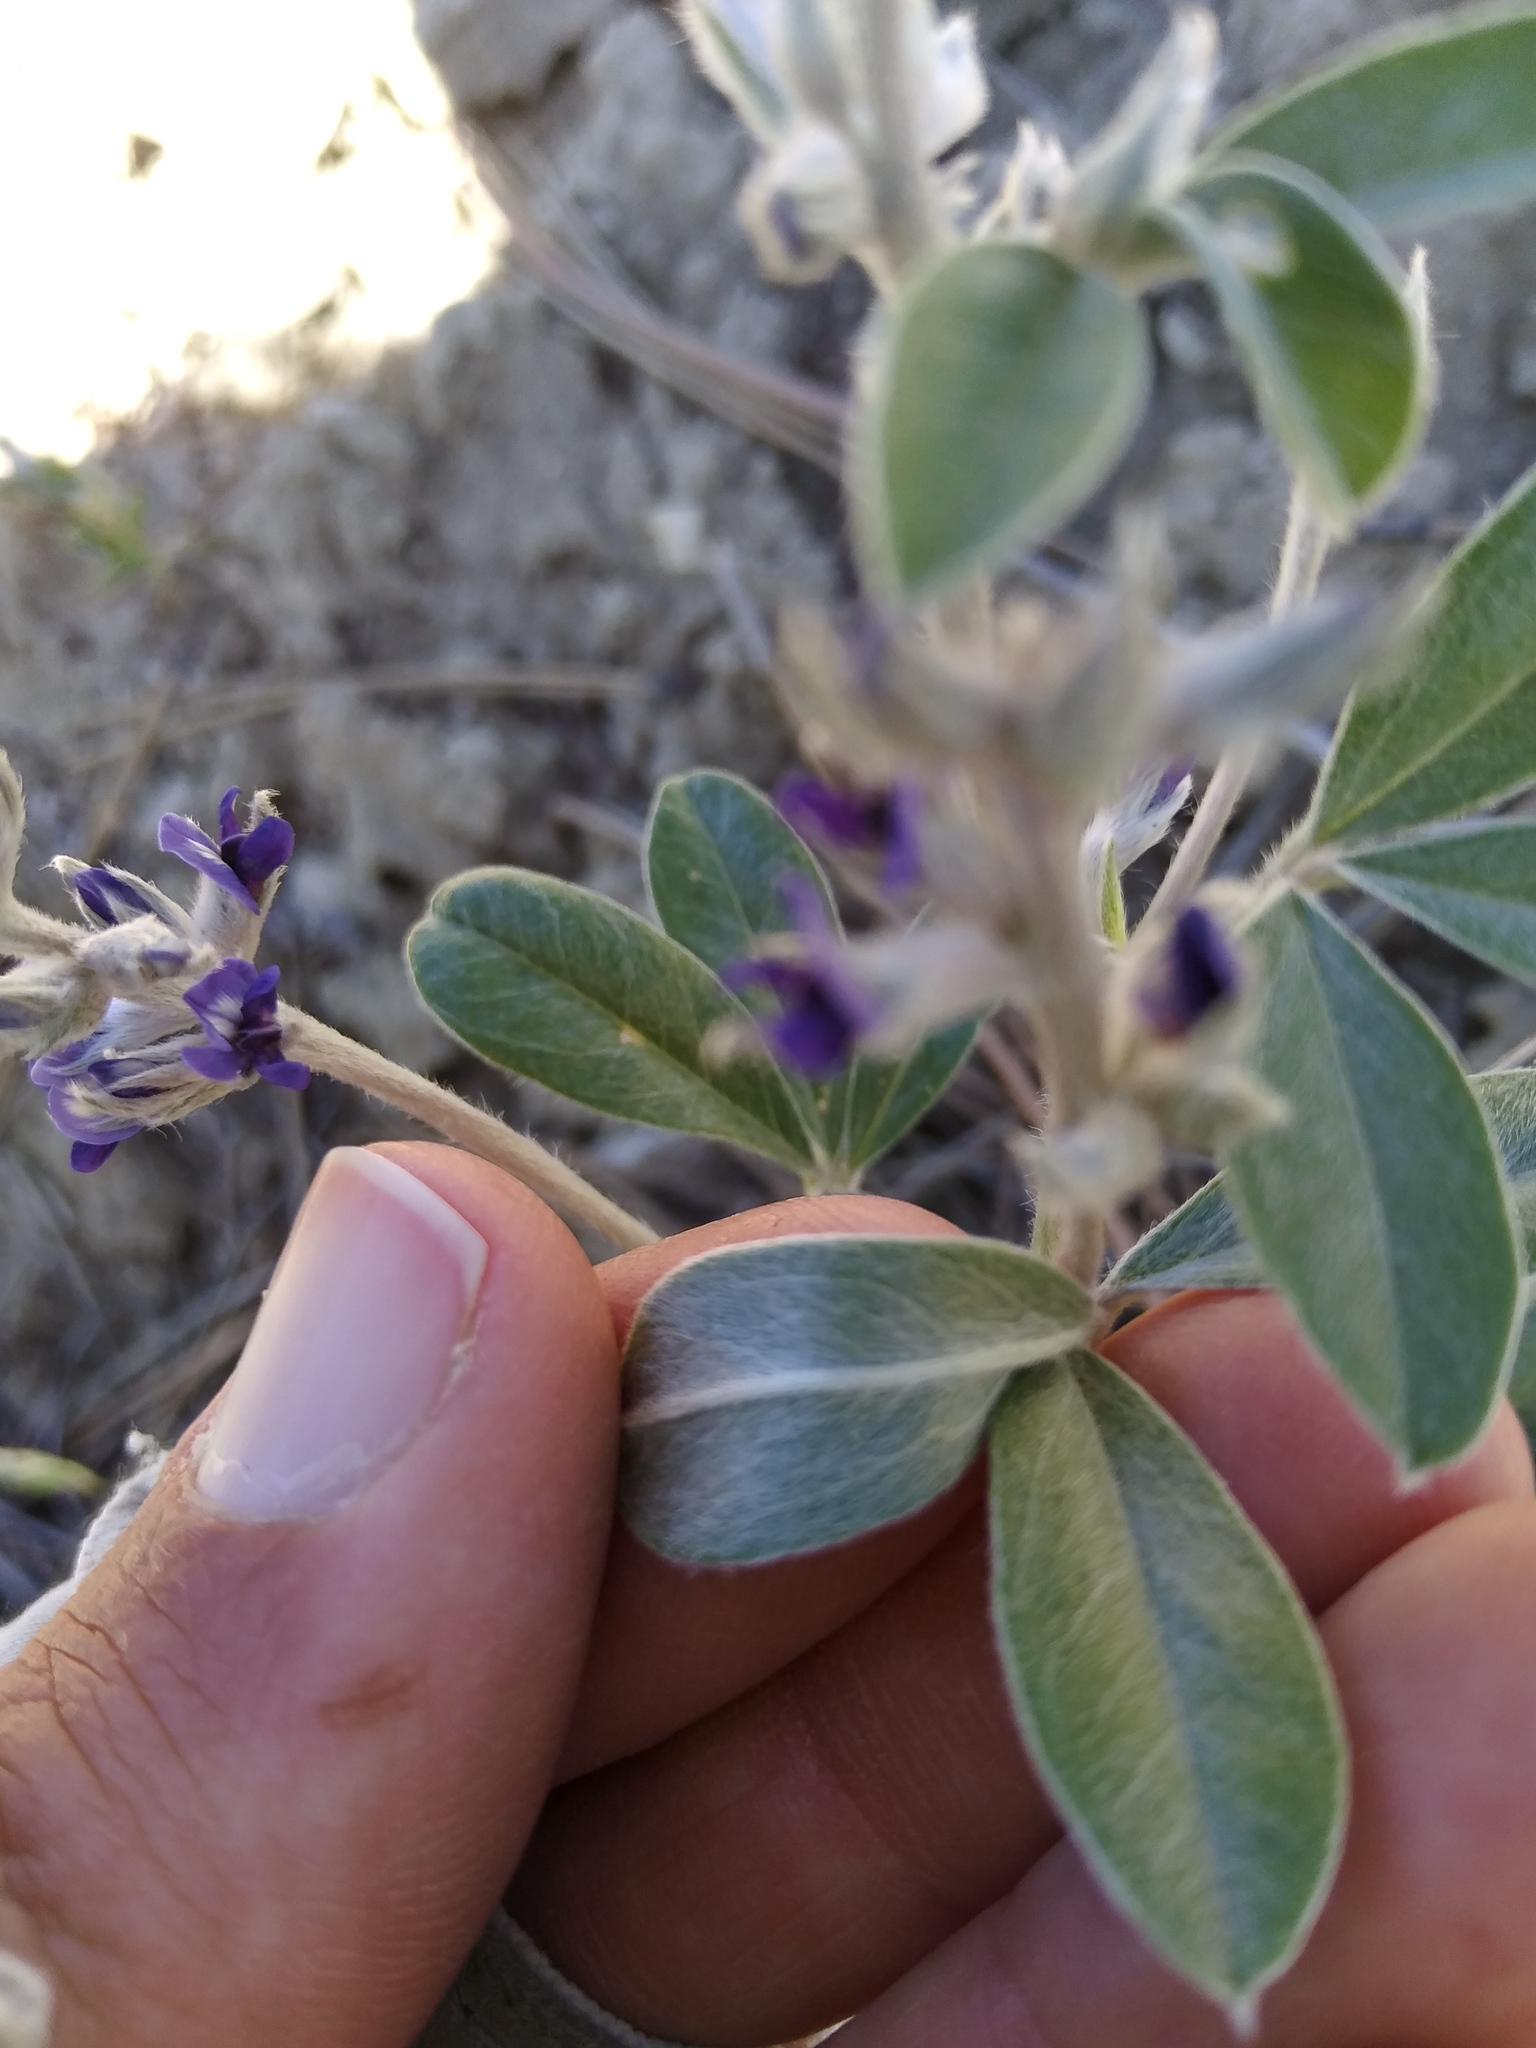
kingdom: Plantae
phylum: Tracheophyta
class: Magnoliopsida
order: Fabales
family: Fabaceae
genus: Pediomelum
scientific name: Pediomelum argophyllum
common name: Silver-leaved indian breadroot
